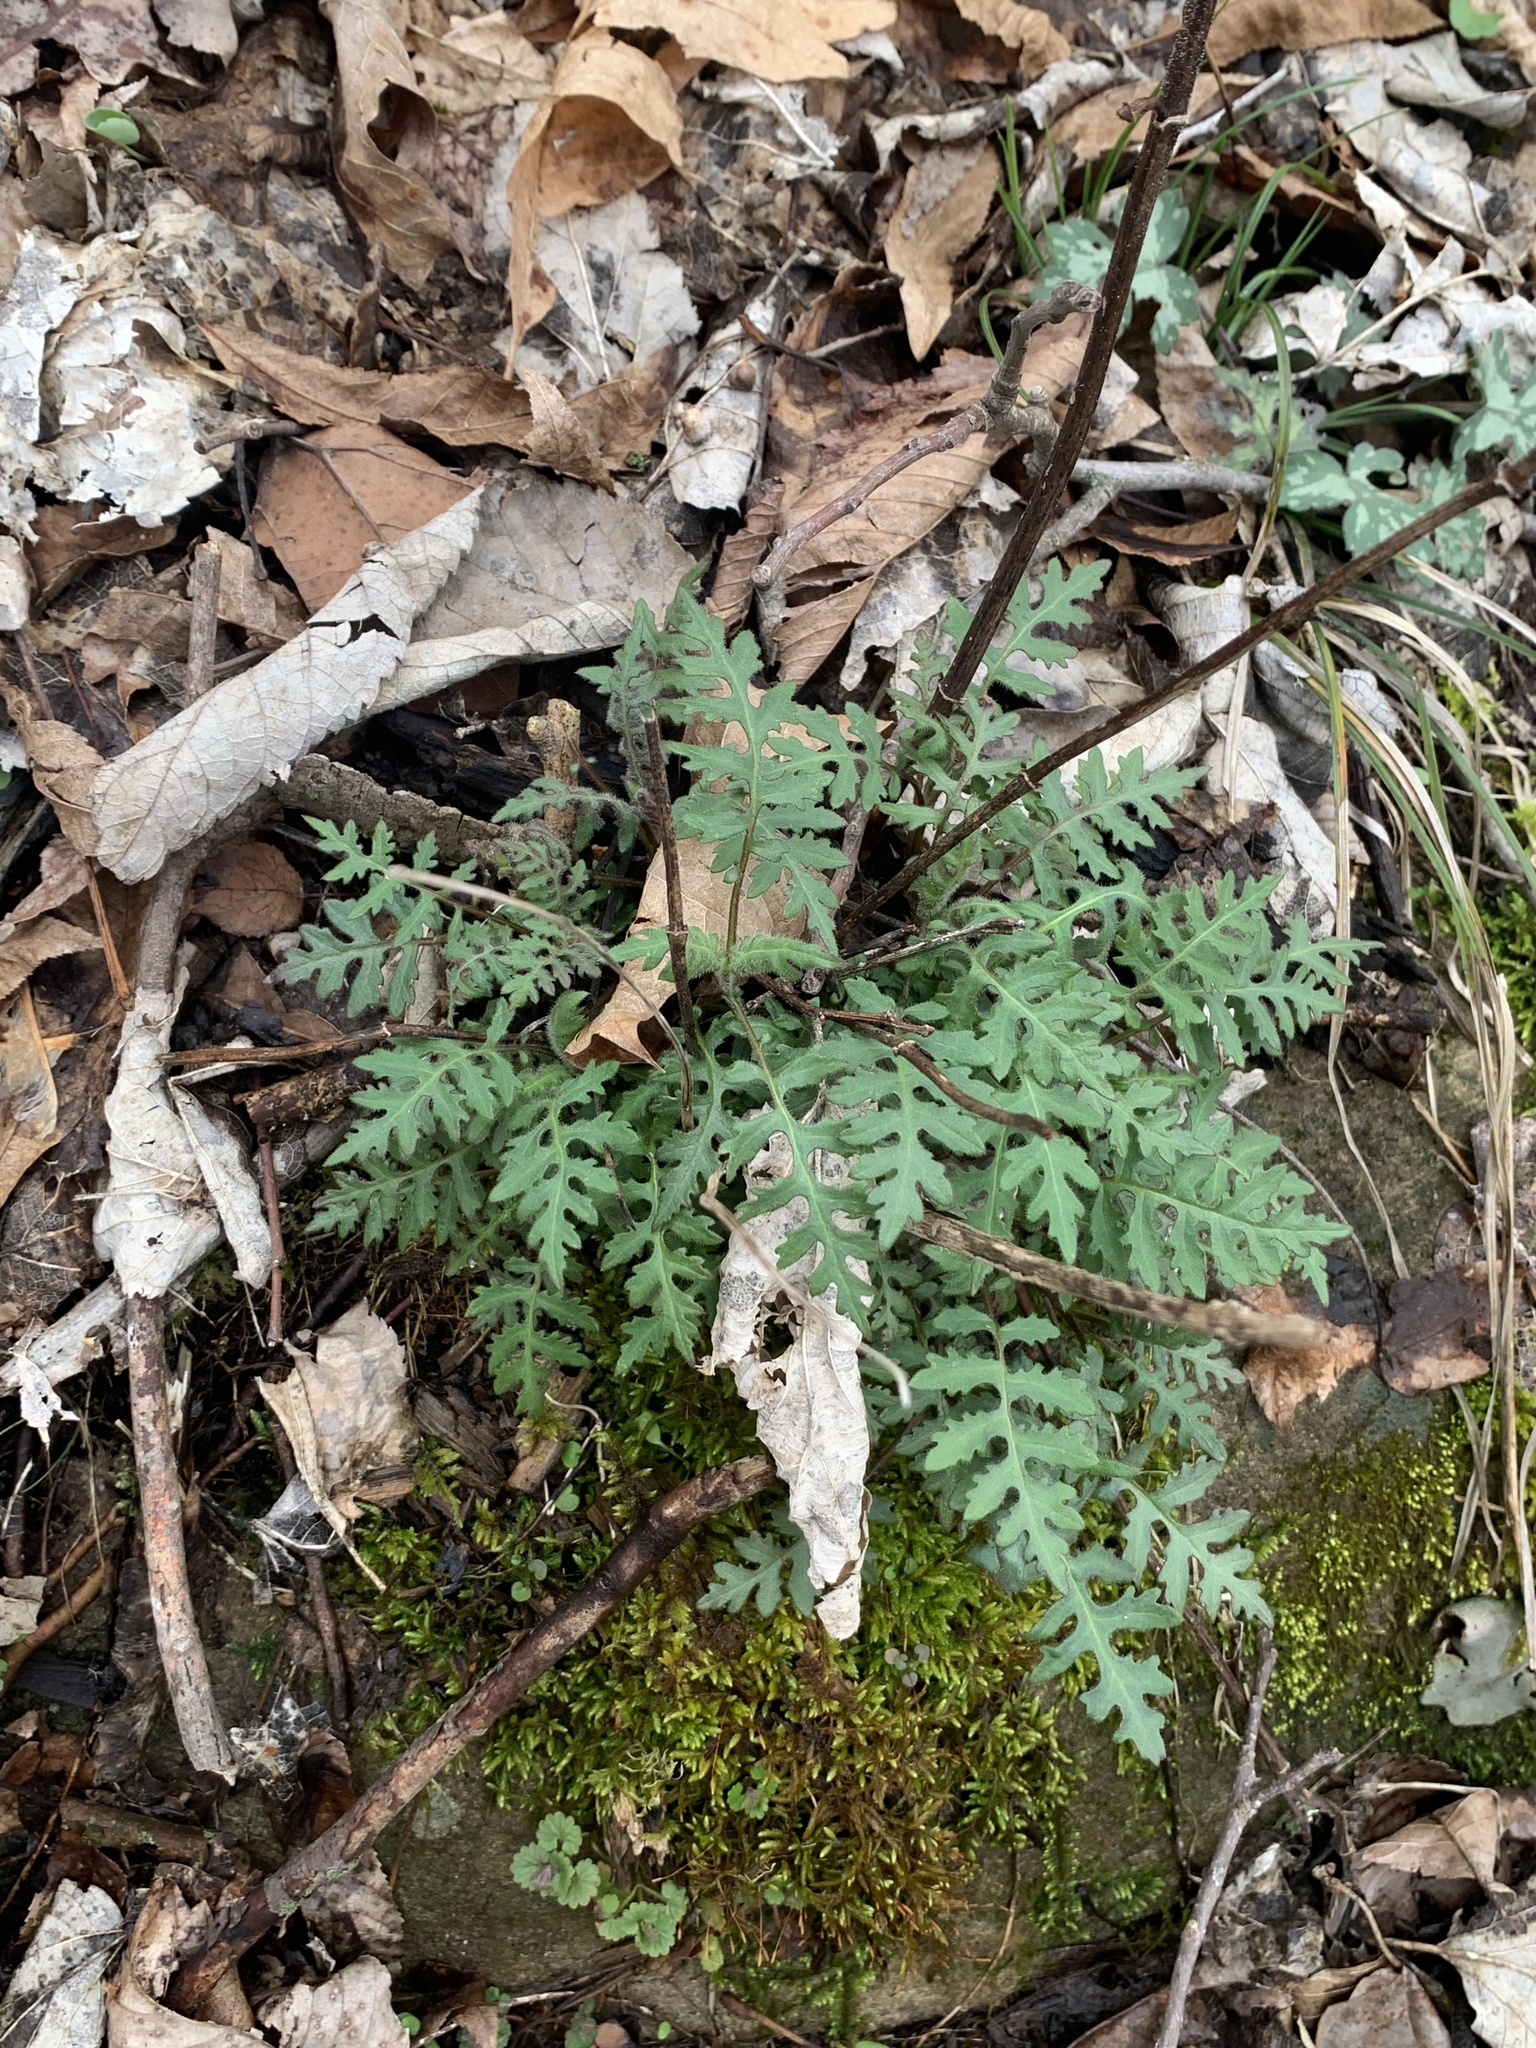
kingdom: Plantae
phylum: Tracheophyta
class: Magnoliopsida
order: Asterales
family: Asteraceae
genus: Polymnia
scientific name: Polymnia canadensis
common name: Pale-flowered leafcup
